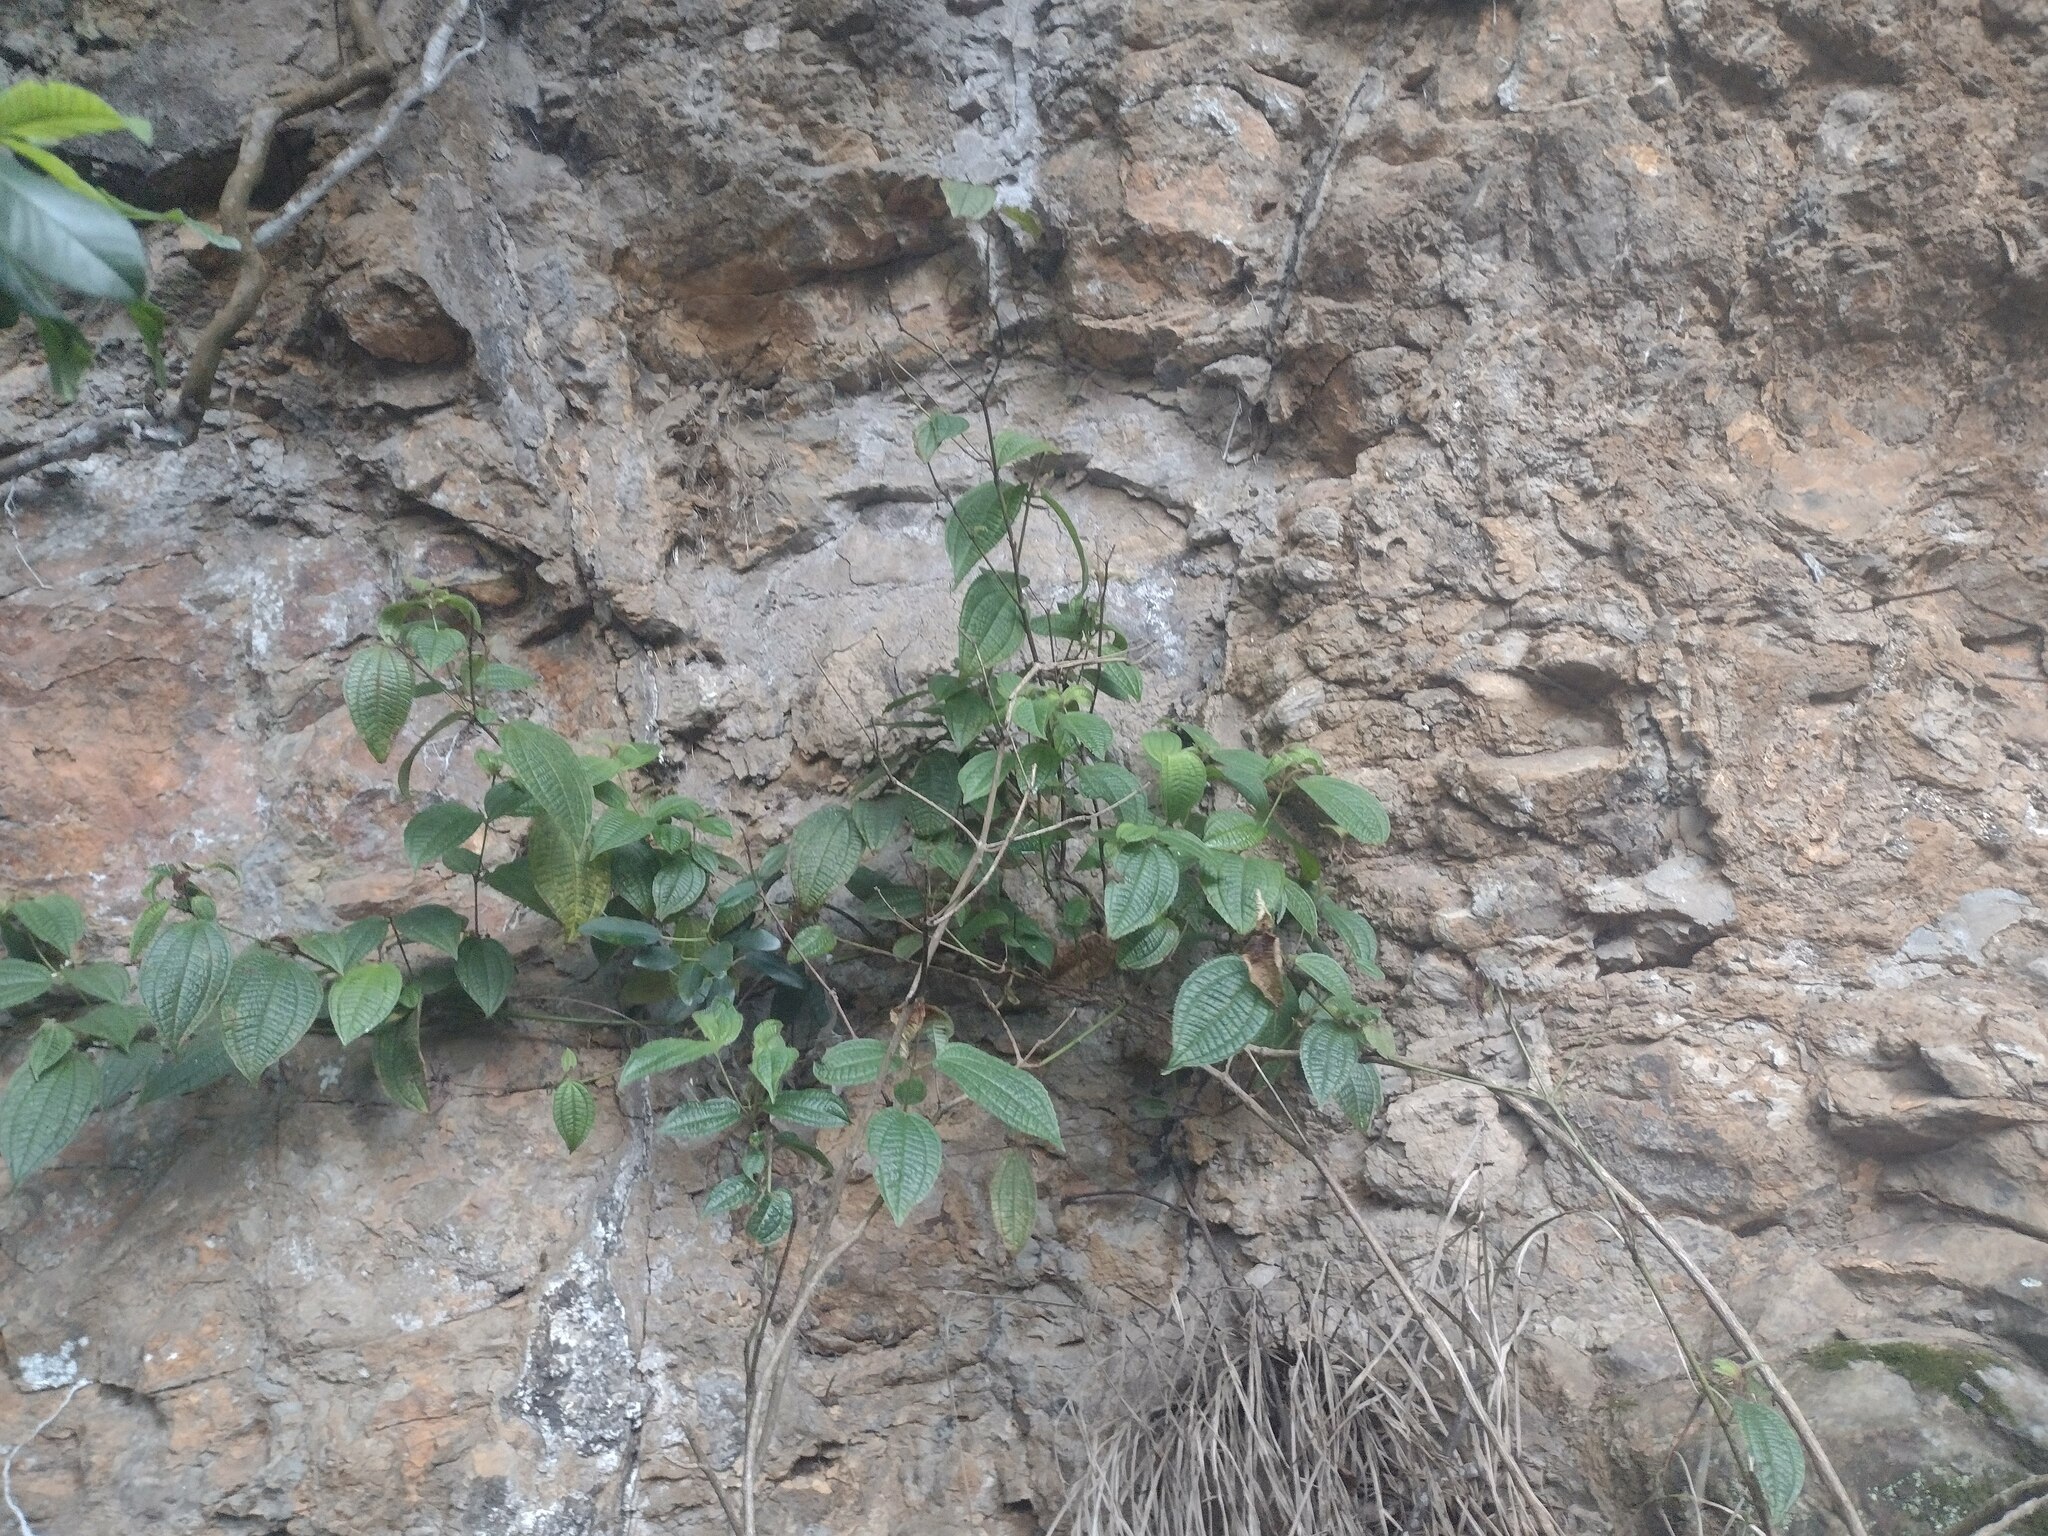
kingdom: Plantae
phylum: Tracheophyta
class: Magnoliopsida
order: Myrtales
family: Melastomataceae
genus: Miconia
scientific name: Miconia crenata
